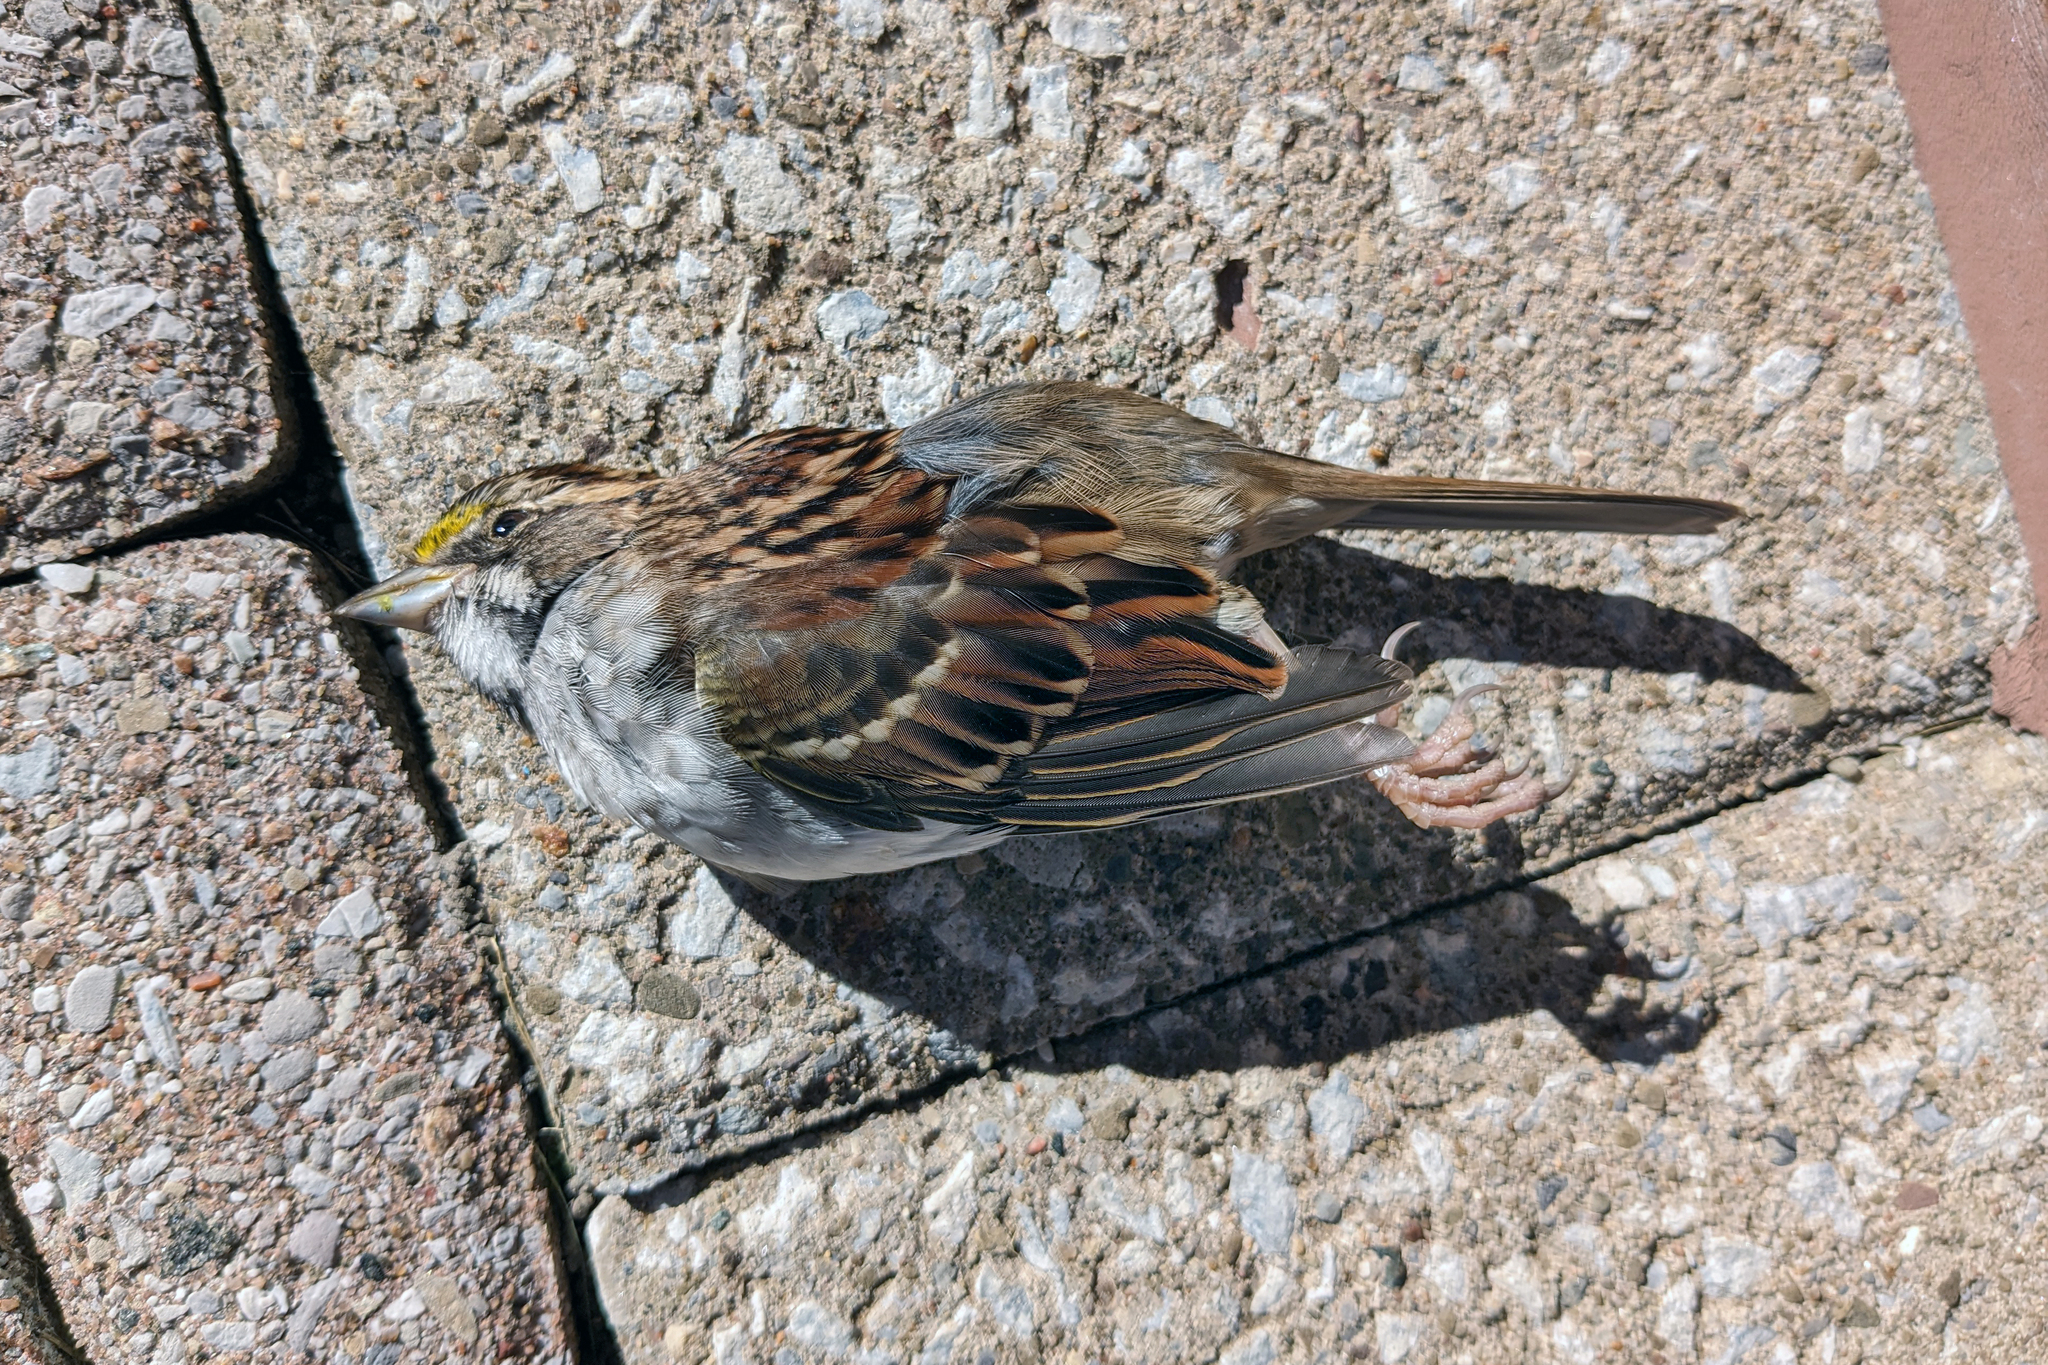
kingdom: Animalia
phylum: Chordata
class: Aves
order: Passeriformes
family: Passerellidae
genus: Zonotrichia
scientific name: Zonotrichia albicollis
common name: White-throated sparrow
